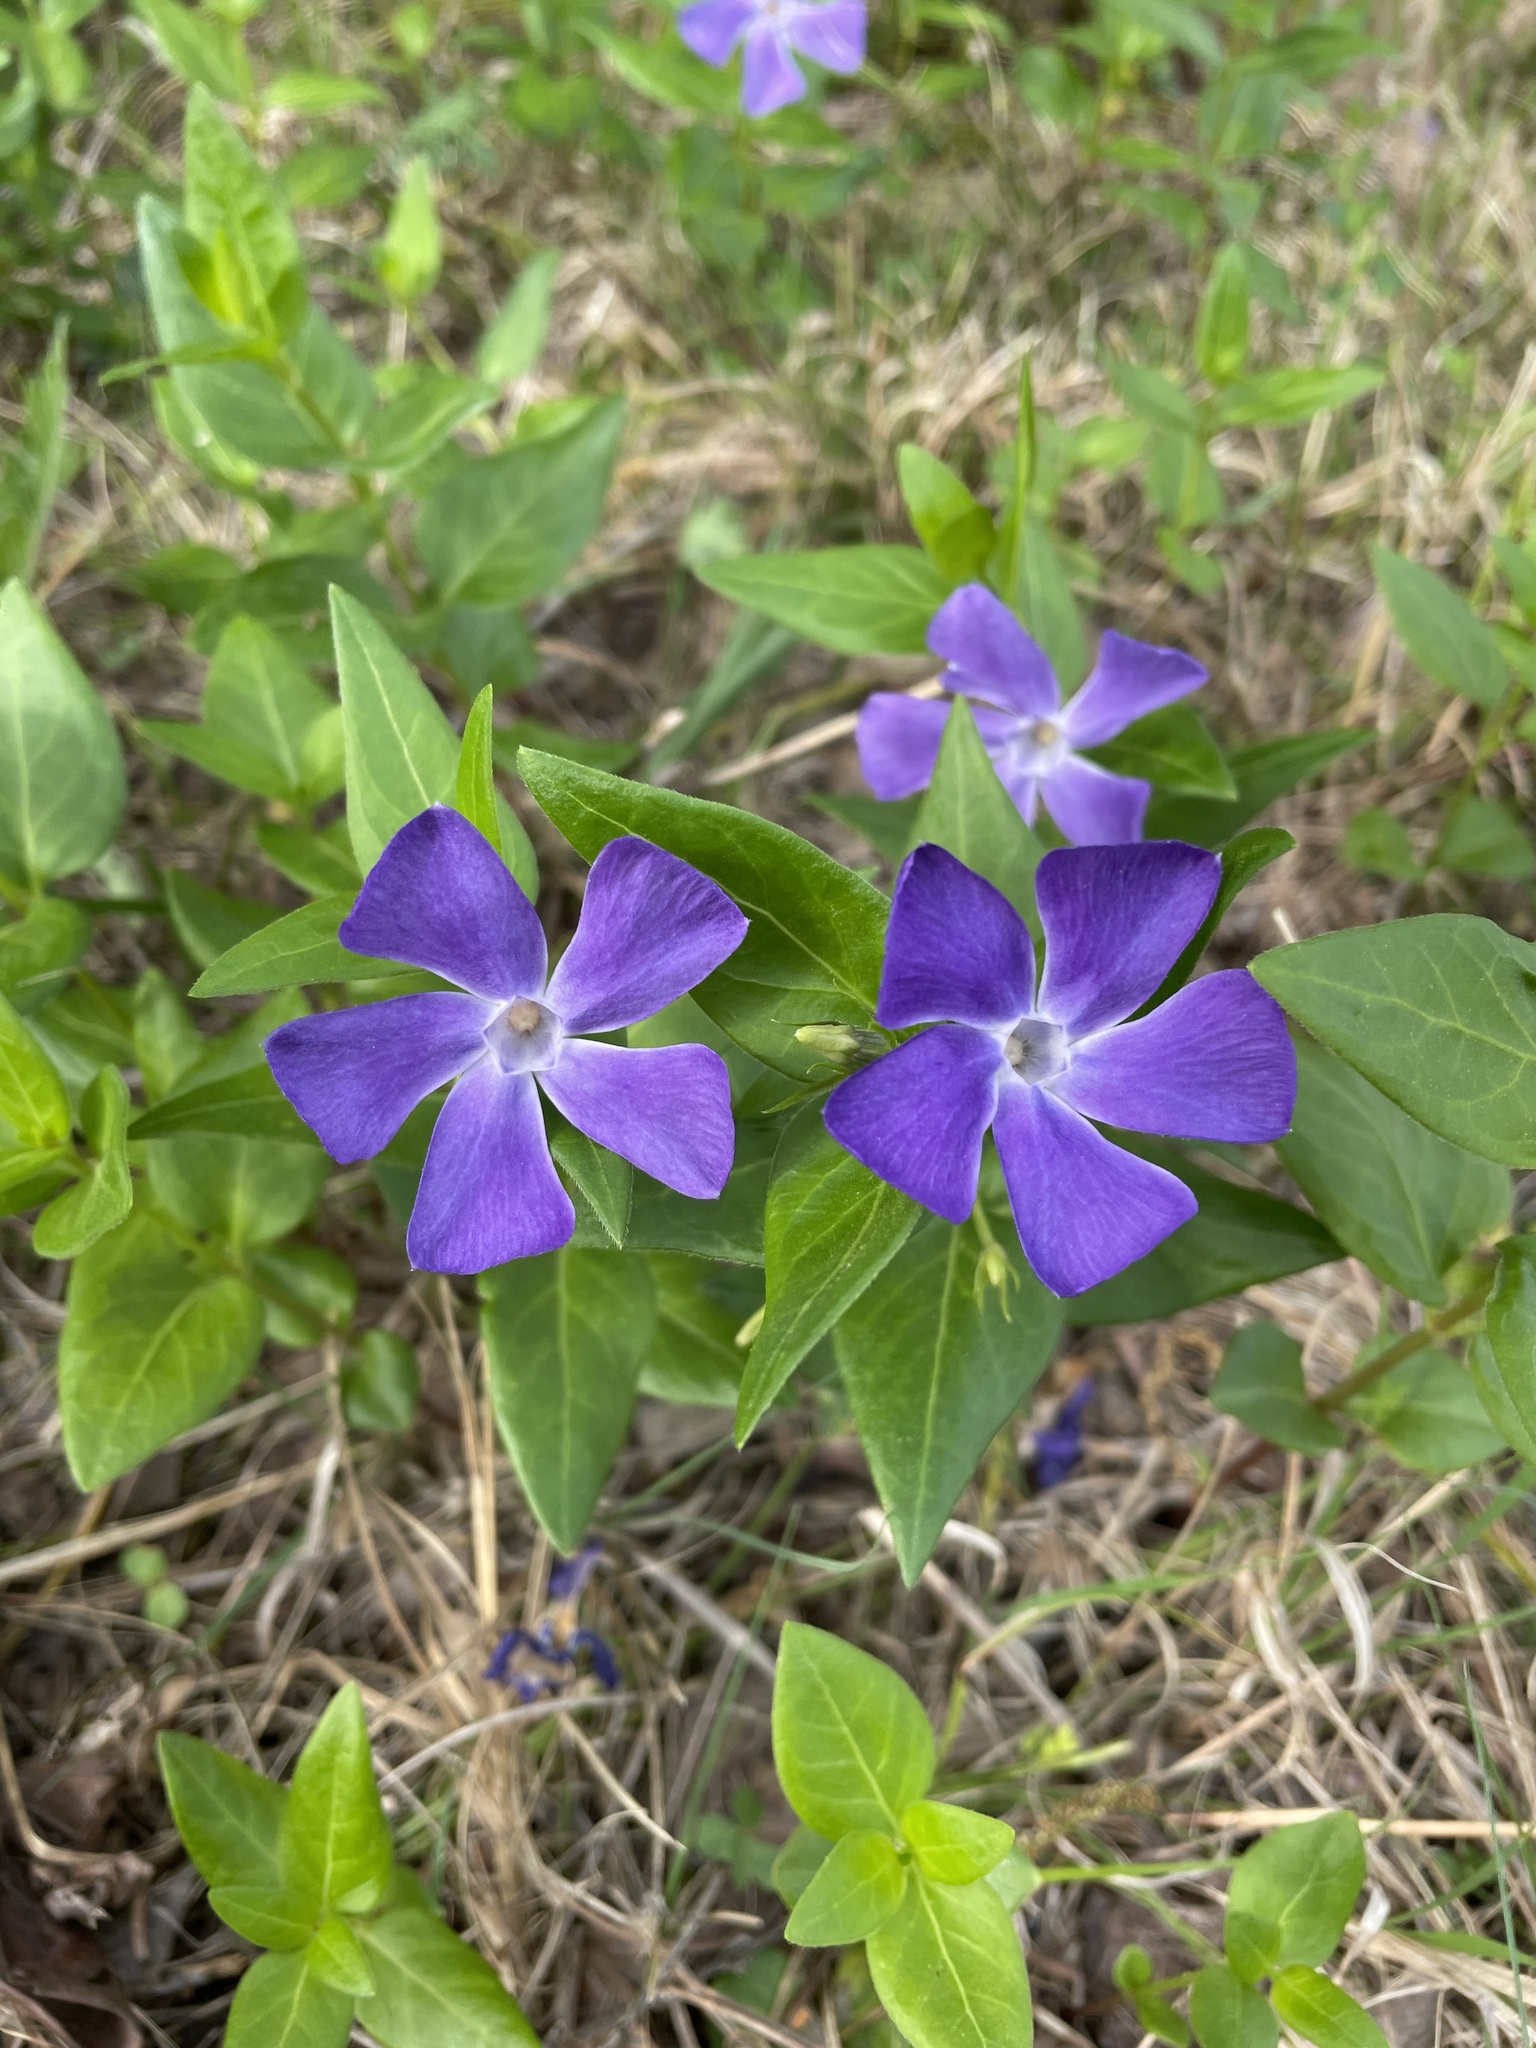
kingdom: Plantae
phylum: Tracheophyta
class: Magnoliopsida
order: Gentianales
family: Apocynaceae
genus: Vinca
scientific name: Vinca major
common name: Greater periwinkle
